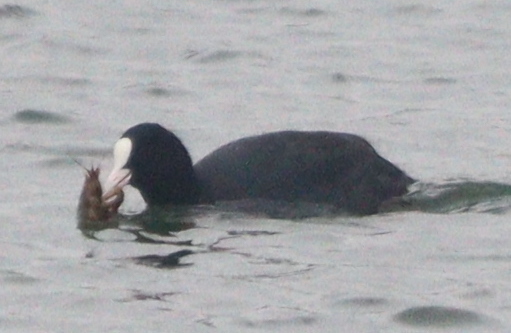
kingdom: Animalia
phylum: Chordata
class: Aves
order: Gruiformes
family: Rallidae
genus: Fulica
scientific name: Fulica atra
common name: Eurasian coot
